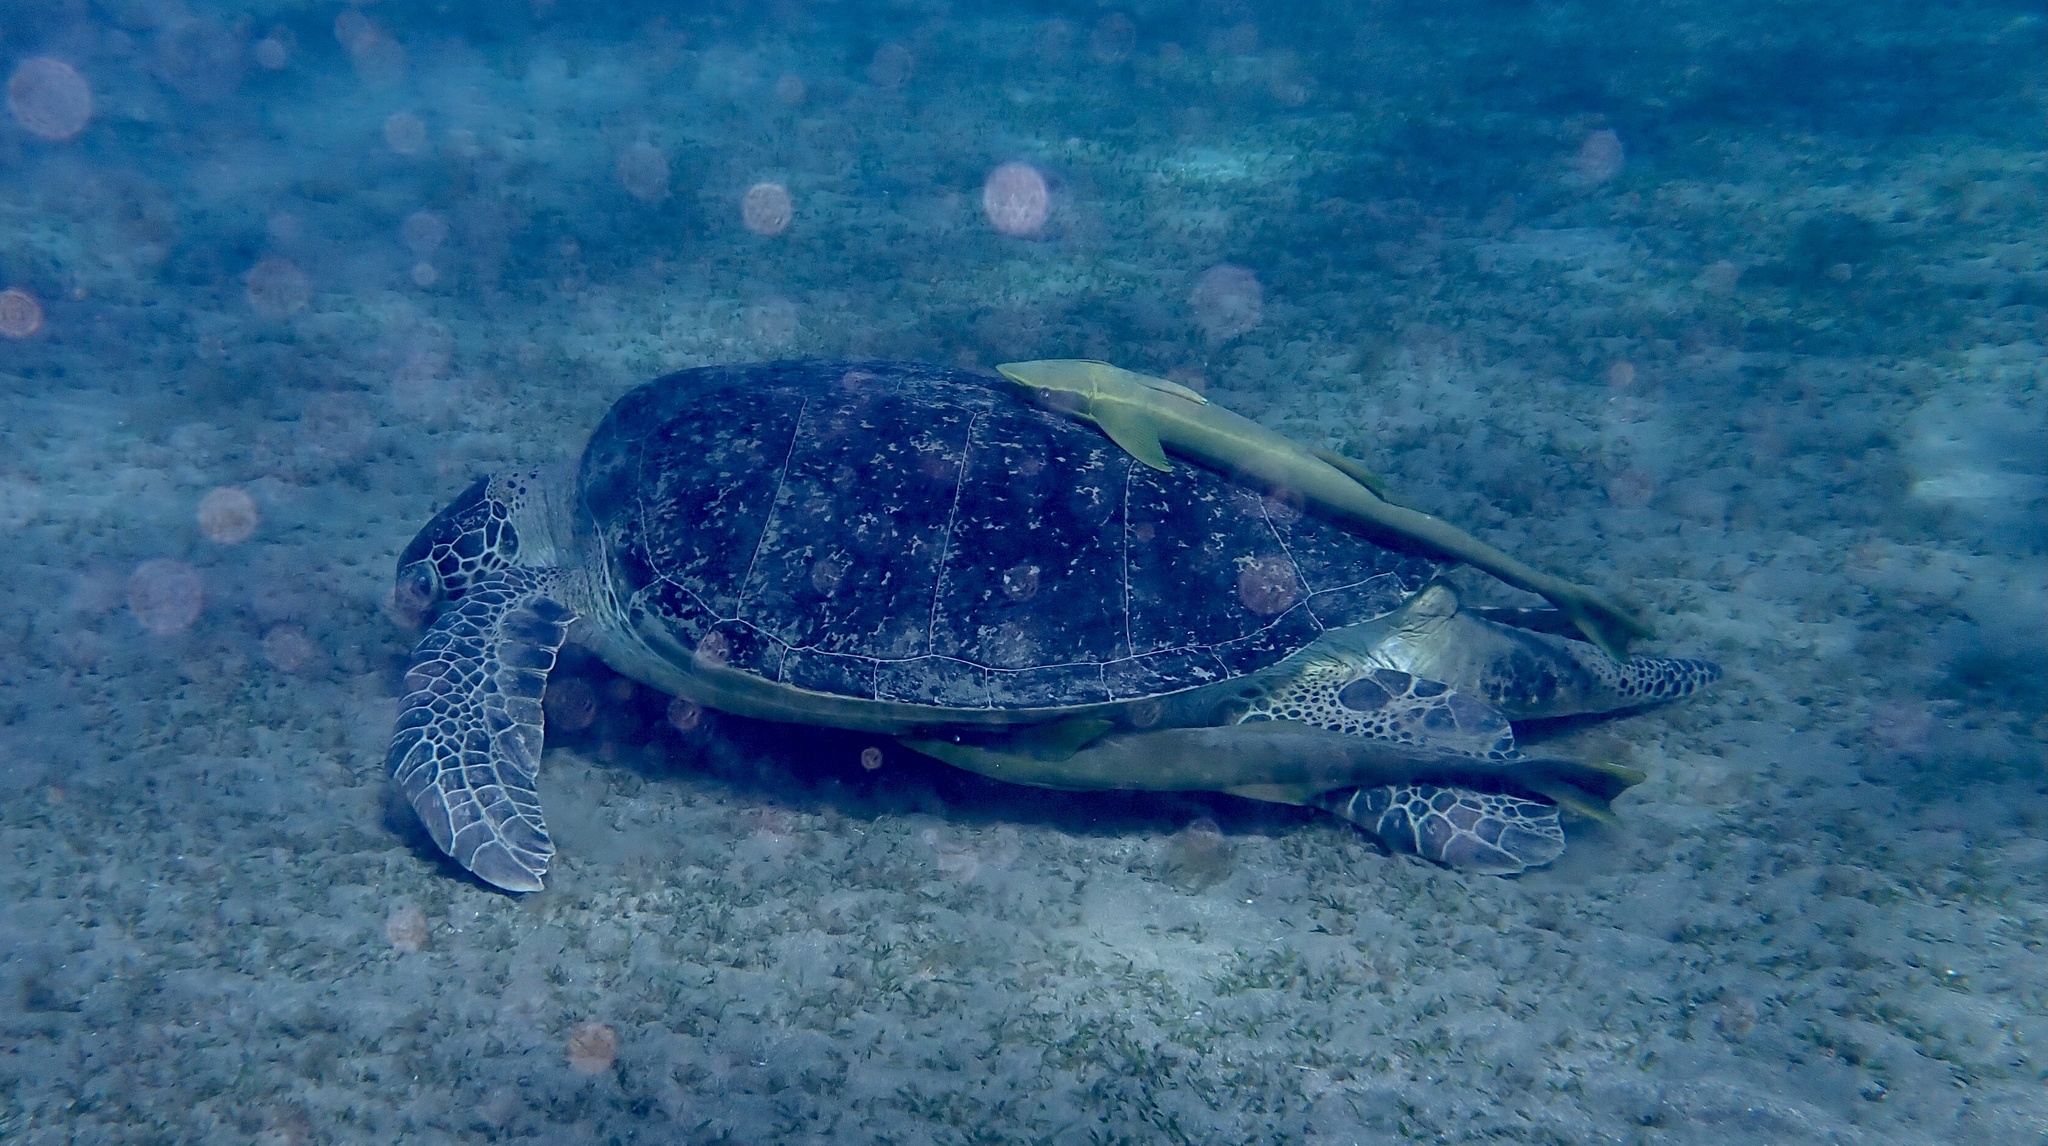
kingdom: Animalia
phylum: Chordata
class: Testudines
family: Cheloniidae
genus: Chelonia
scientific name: Chelonia mydas
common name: Green turtle
